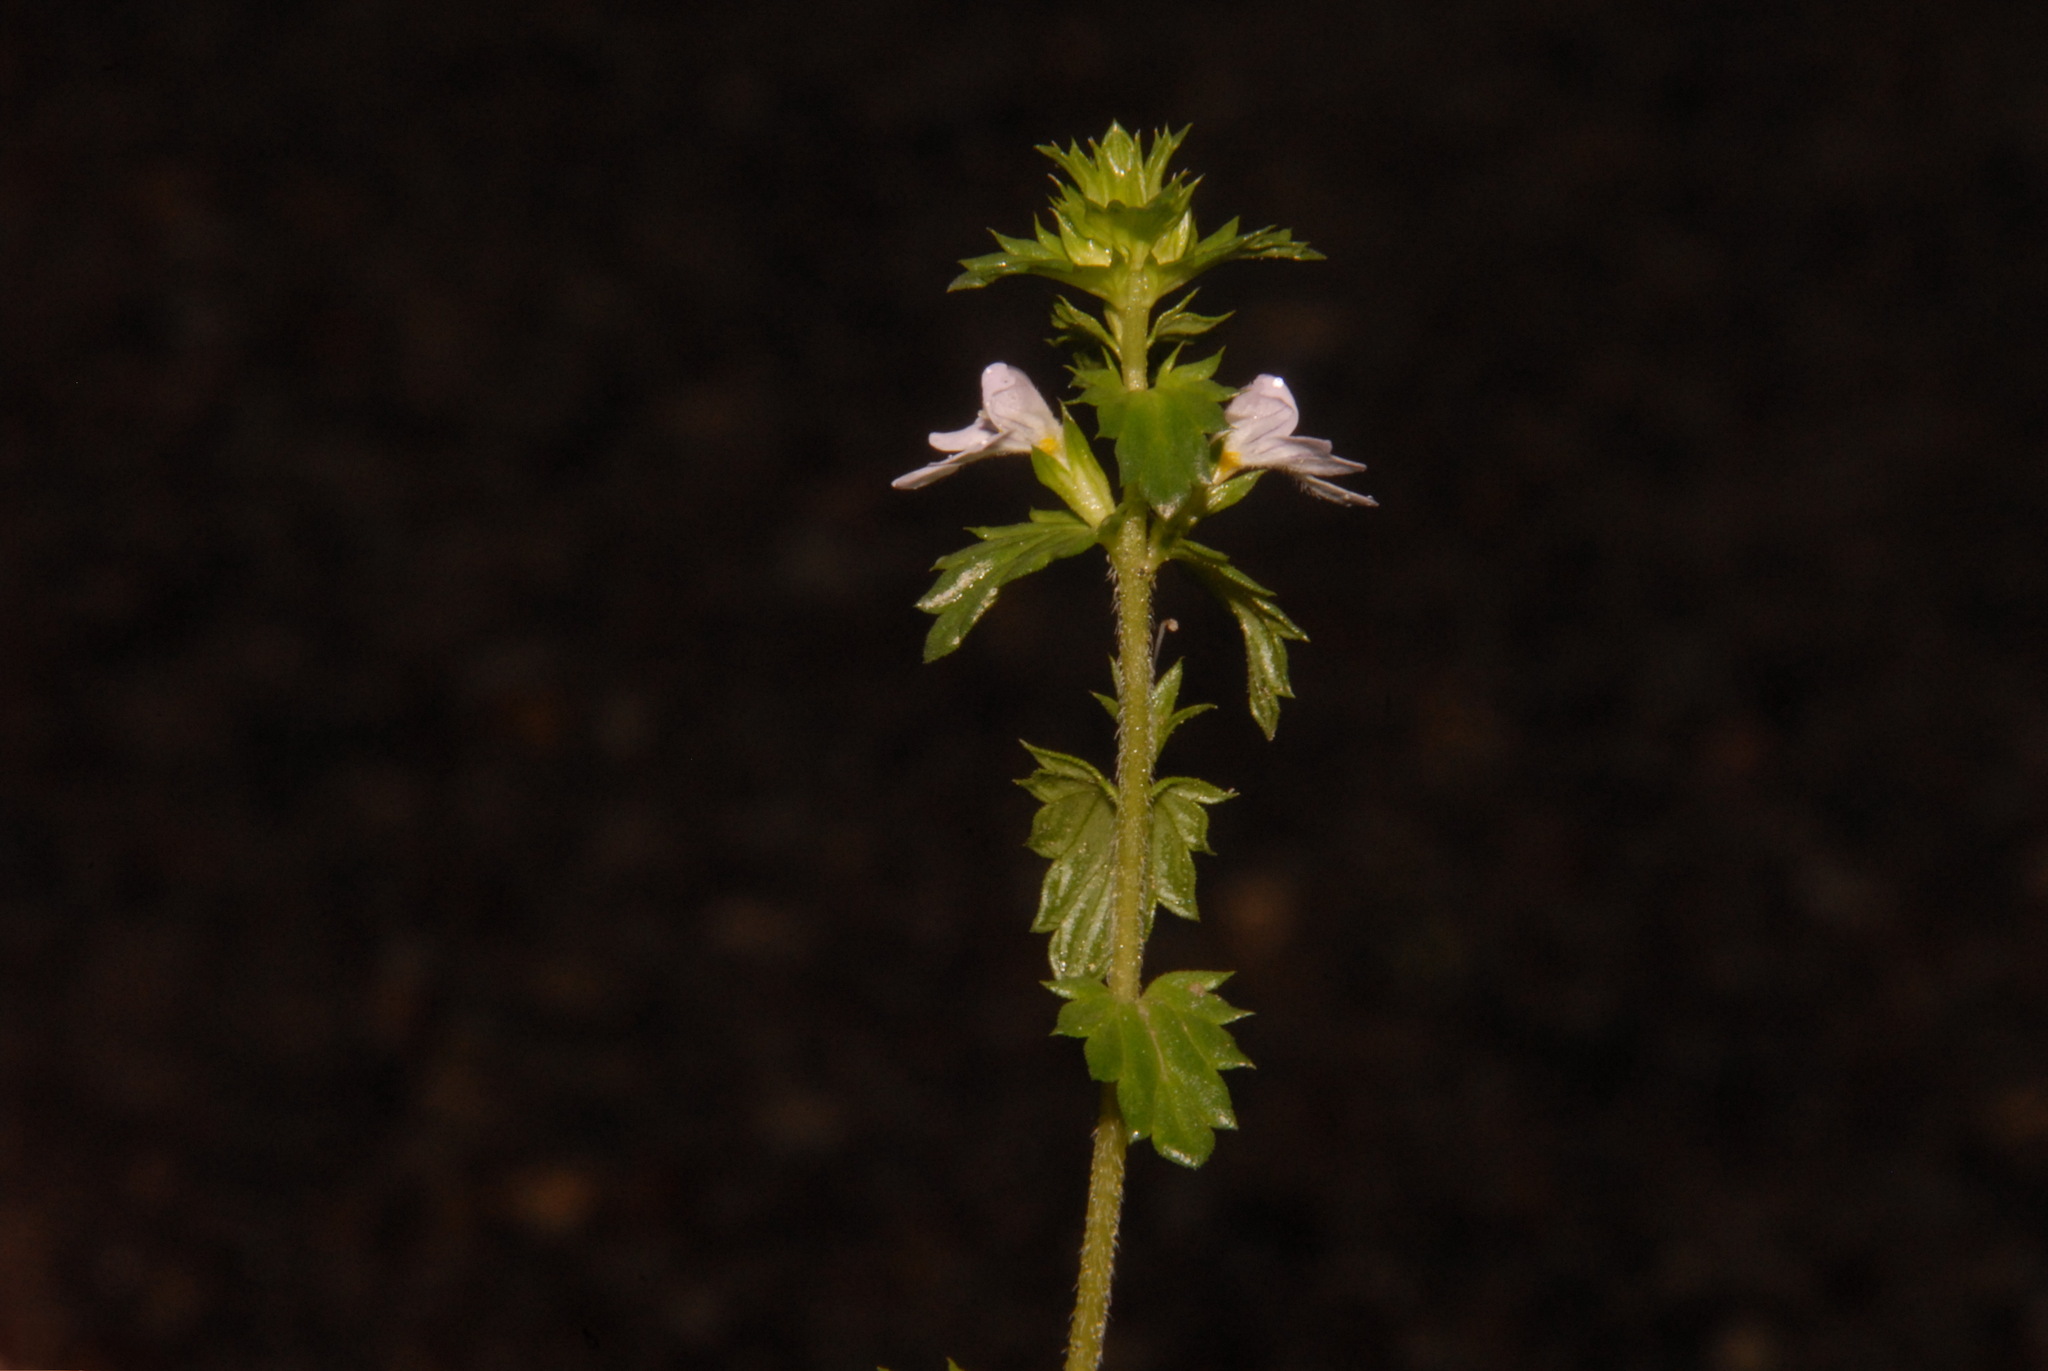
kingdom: Plantae
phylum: Tracheophyta
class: Magnoliopsida
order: Lamiales
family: Orobanchaceae
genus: Euphrasia
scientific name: Euphrasia nemorosa
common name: Common eyebright
